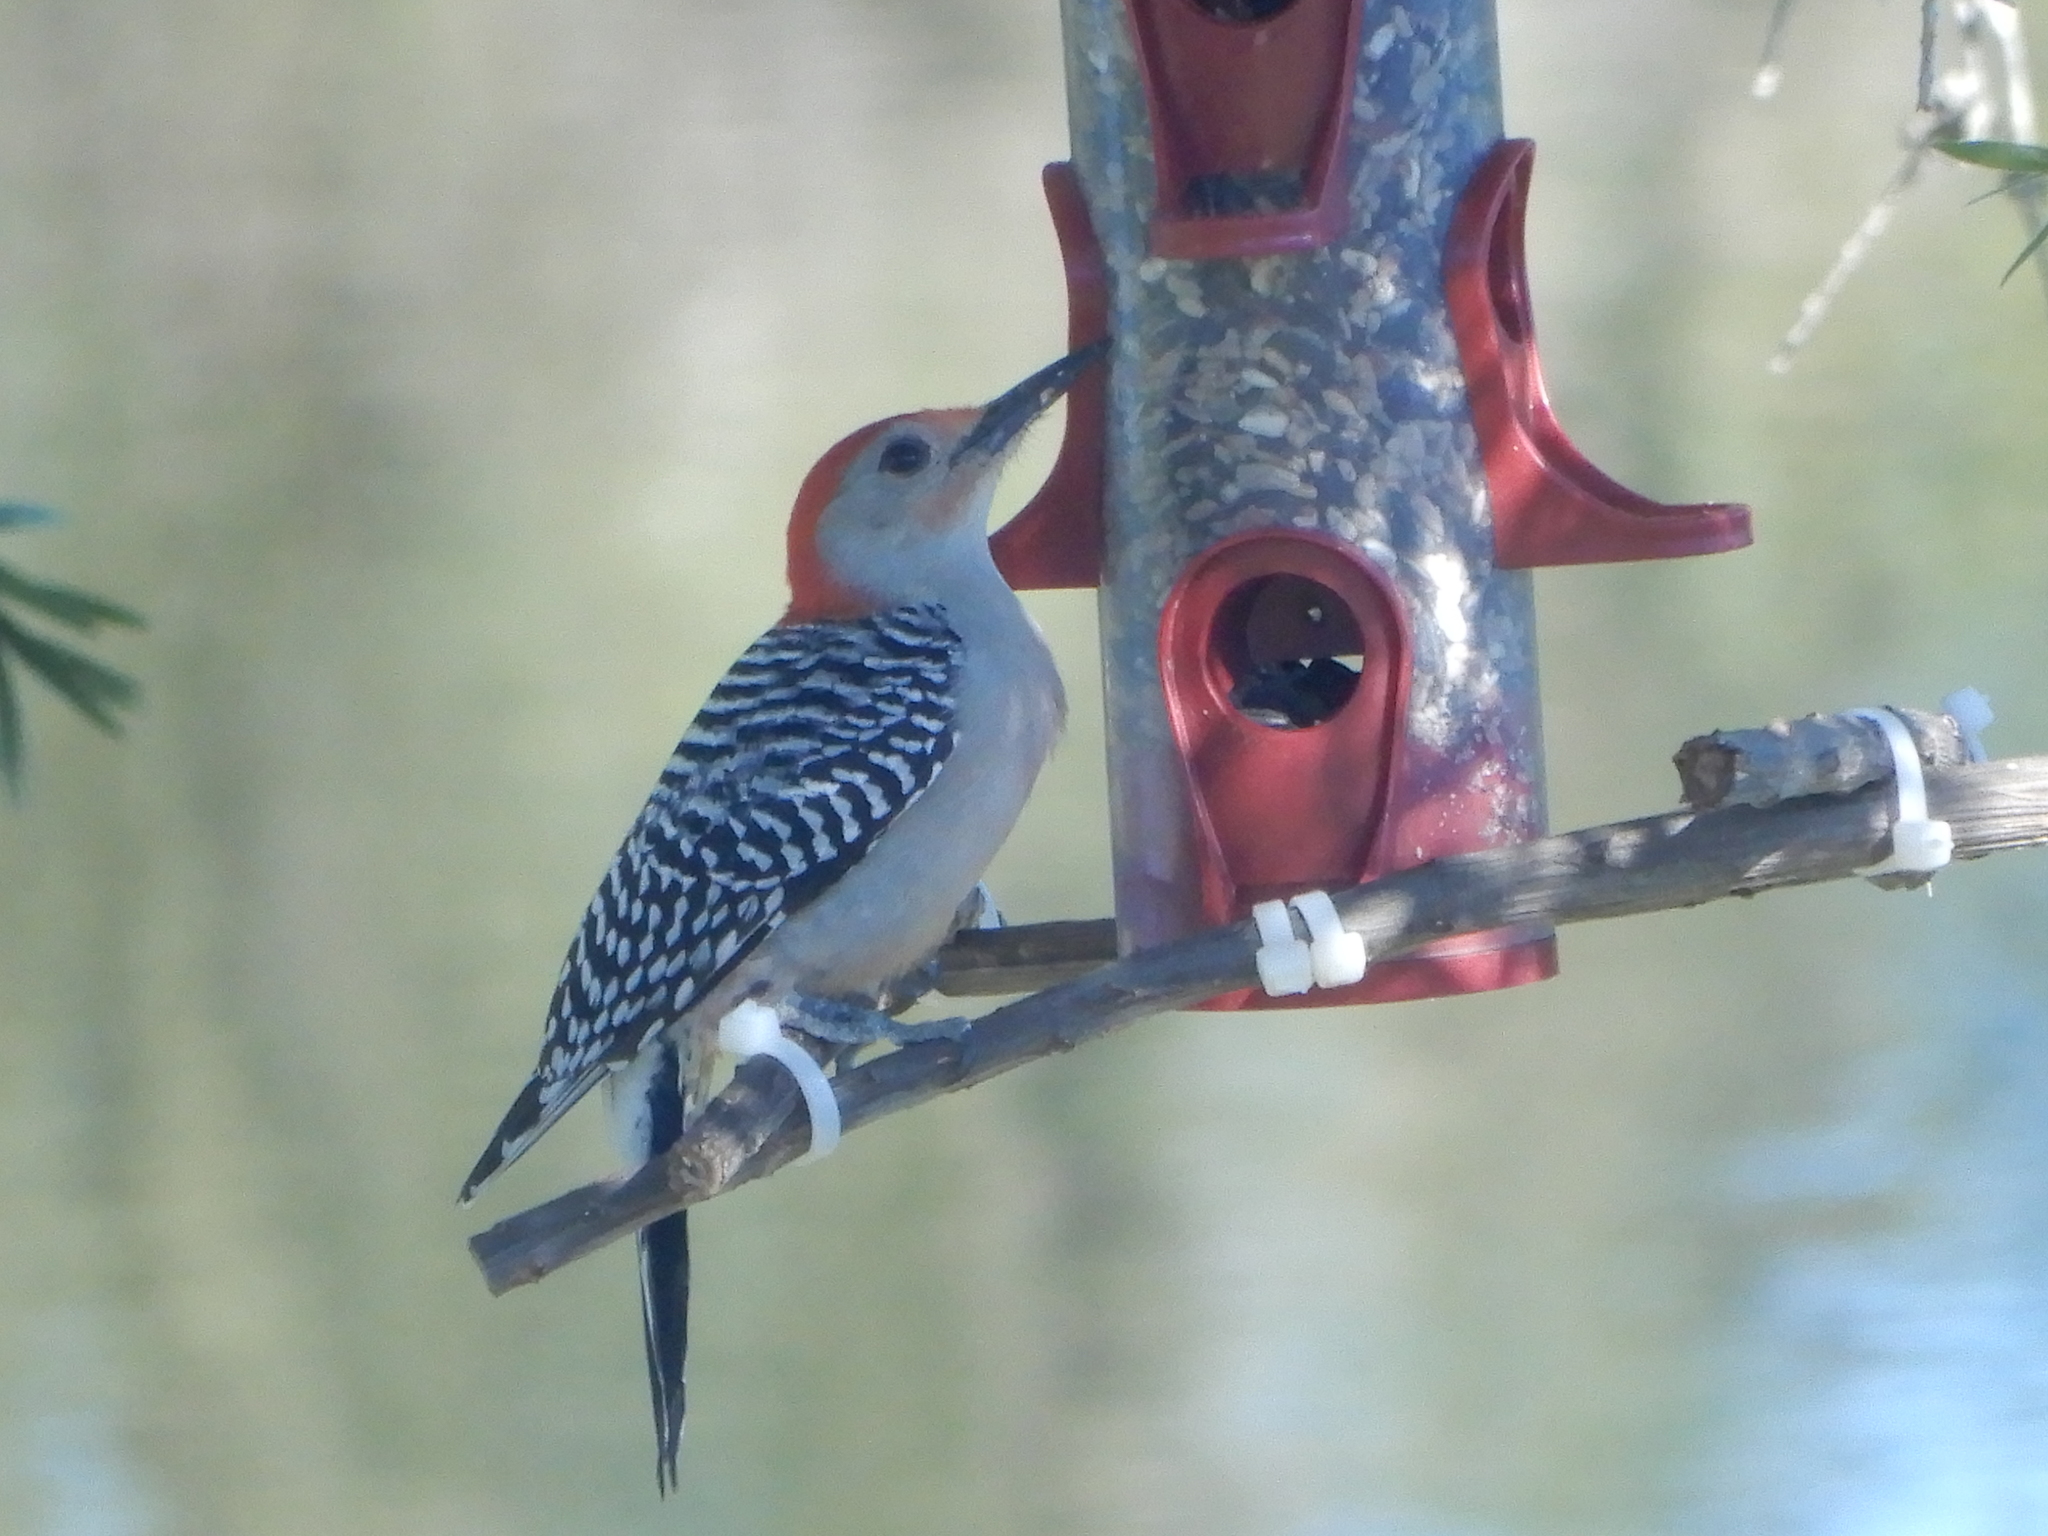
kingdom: Animalia
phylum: Chordata
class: Aves
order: Piciformes
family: Picidae
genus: Melanerpes
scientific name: Melanerpes carolinus
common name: Red-bellied woodpecker
